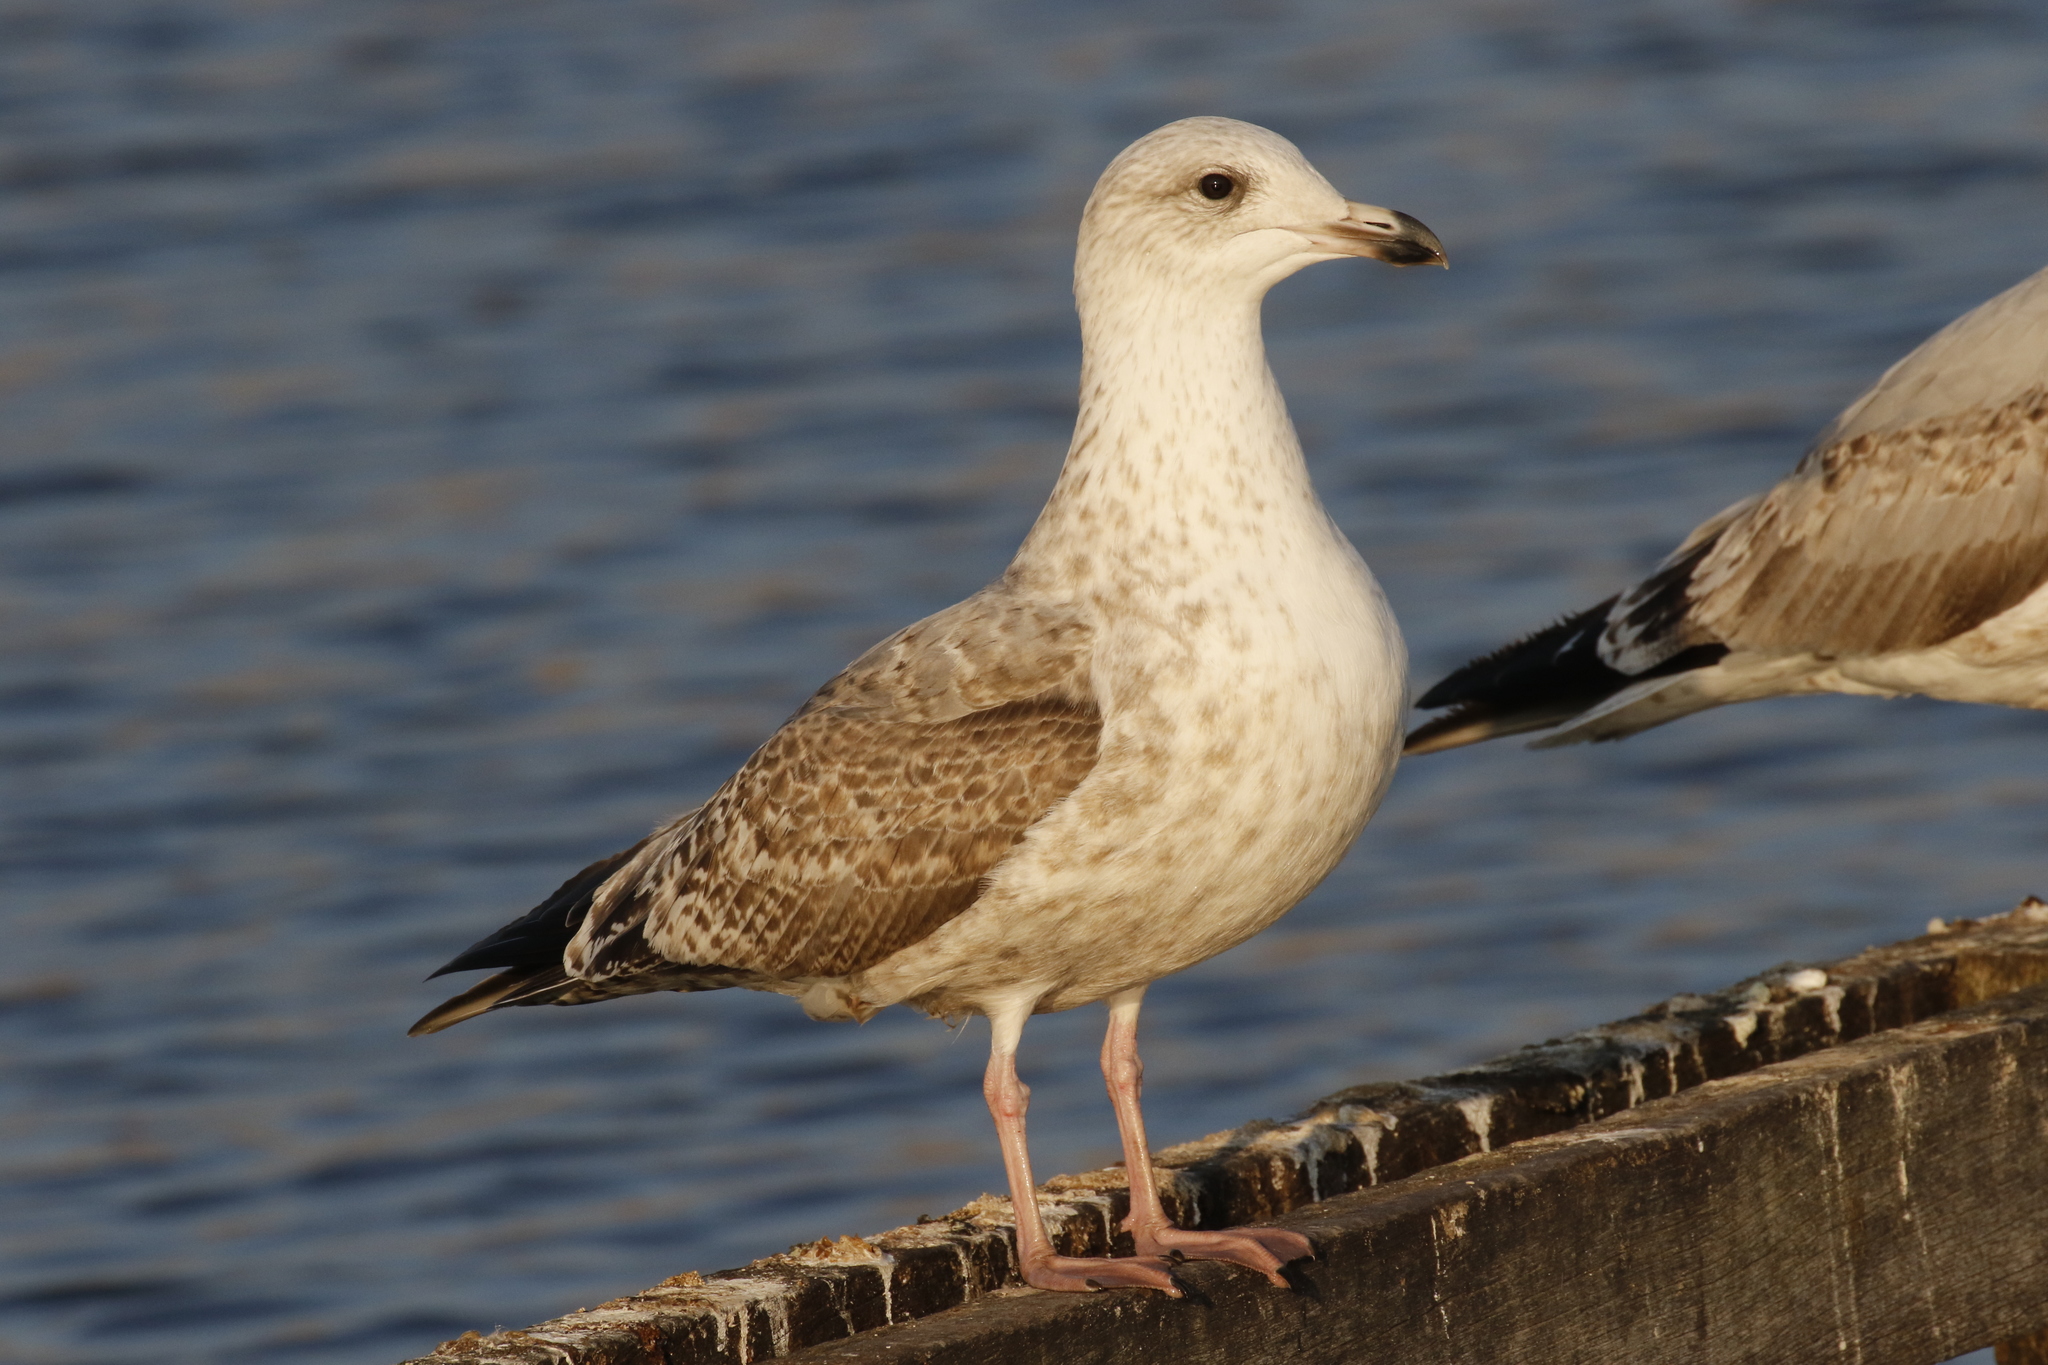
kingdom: Animalia
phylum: Chordata
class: Aves
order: Charadriiformes
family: Laridae
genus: Larus
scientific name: Larus argentatus
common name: Herring gull
